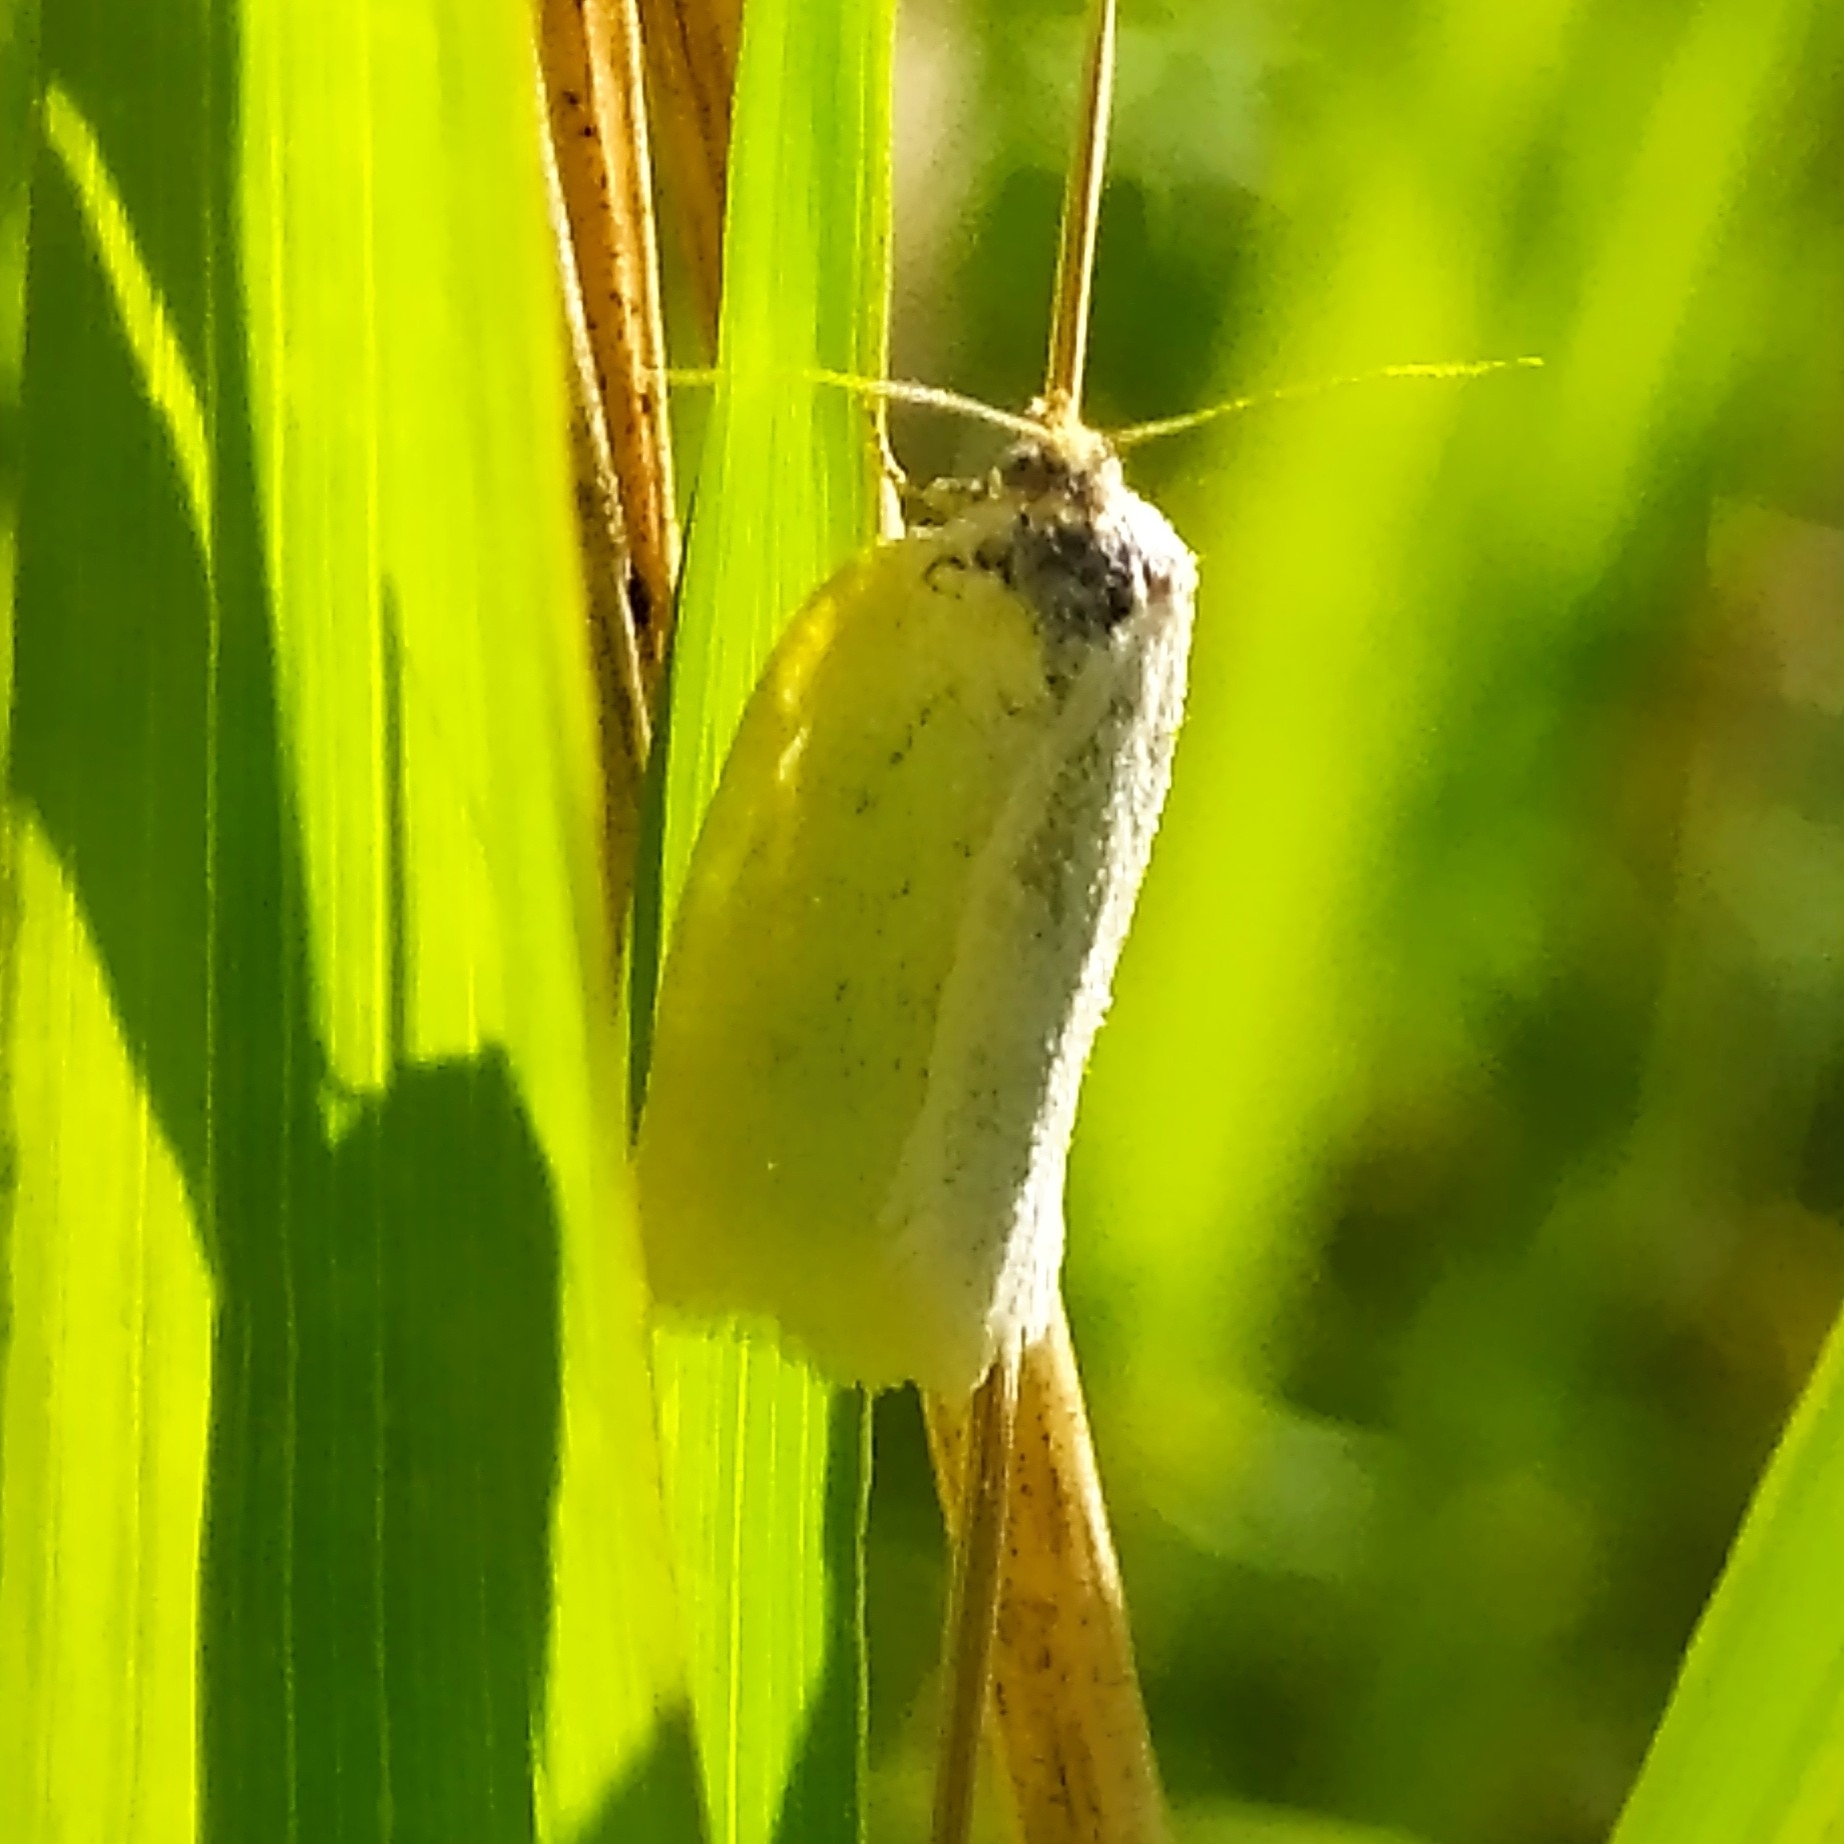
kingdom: Animalia
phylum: Arthropoda
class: Insecta
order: Lepidoptera
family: Tortricidae
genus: Aphelia
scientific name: Aphelia Zelotherses paleana
